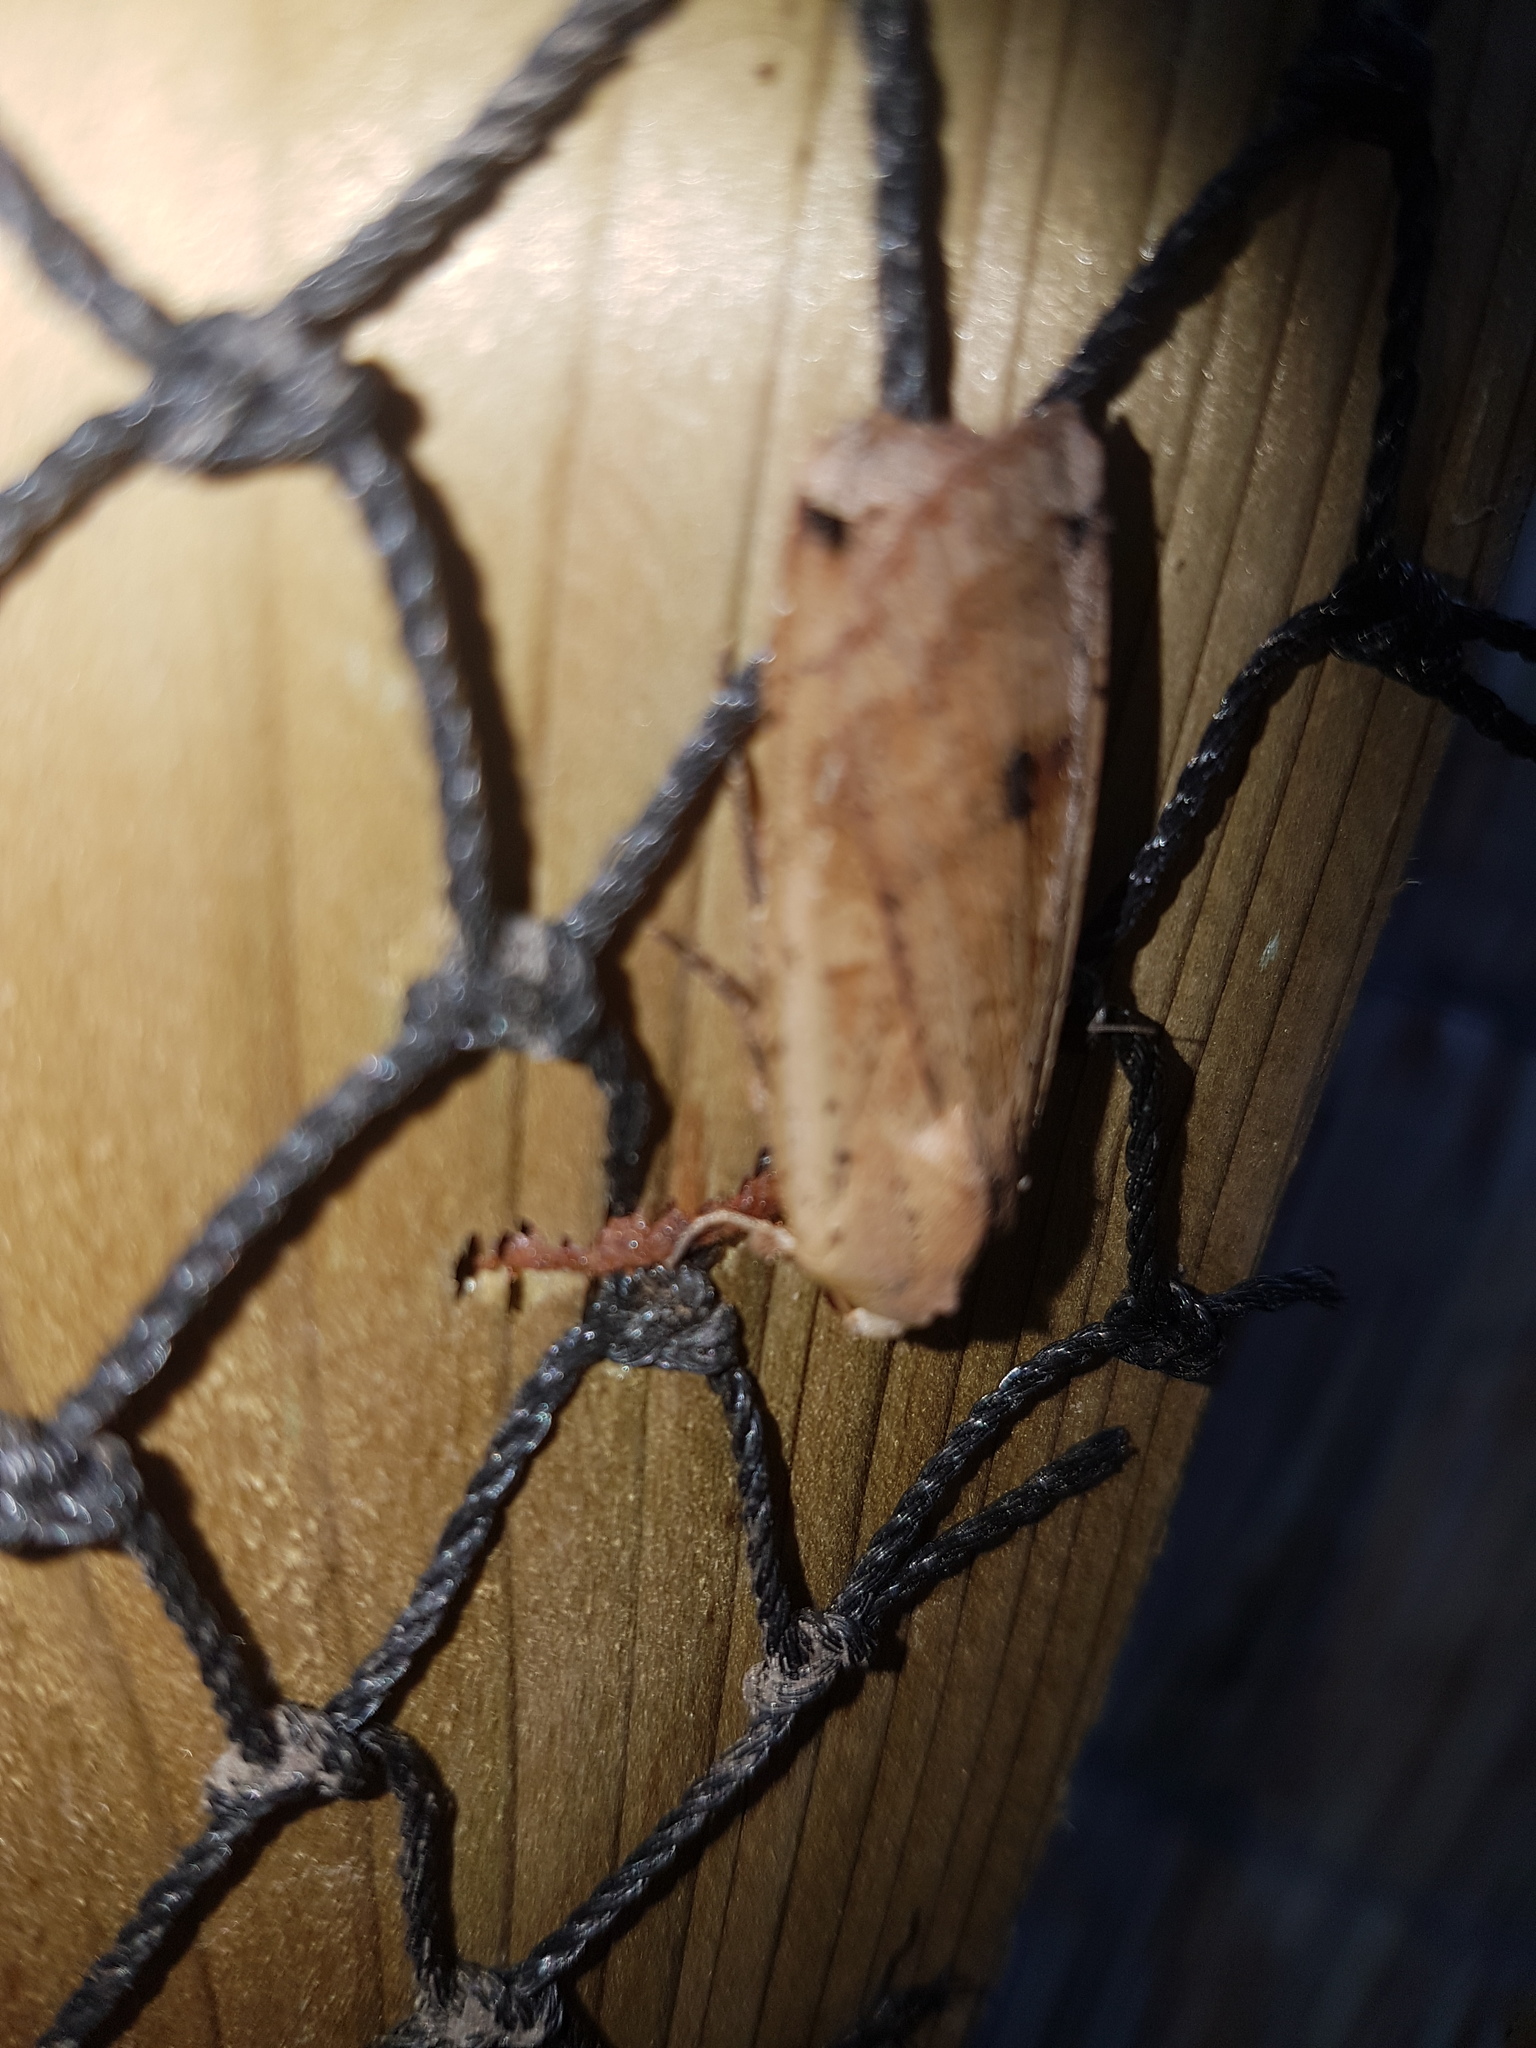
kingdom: Animalia
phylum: Arthropoda
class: Insecta
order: Lepidoptera
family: Noctuidae
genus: Noctua
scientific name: Noctua pronuba
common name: Large yellow underwing
